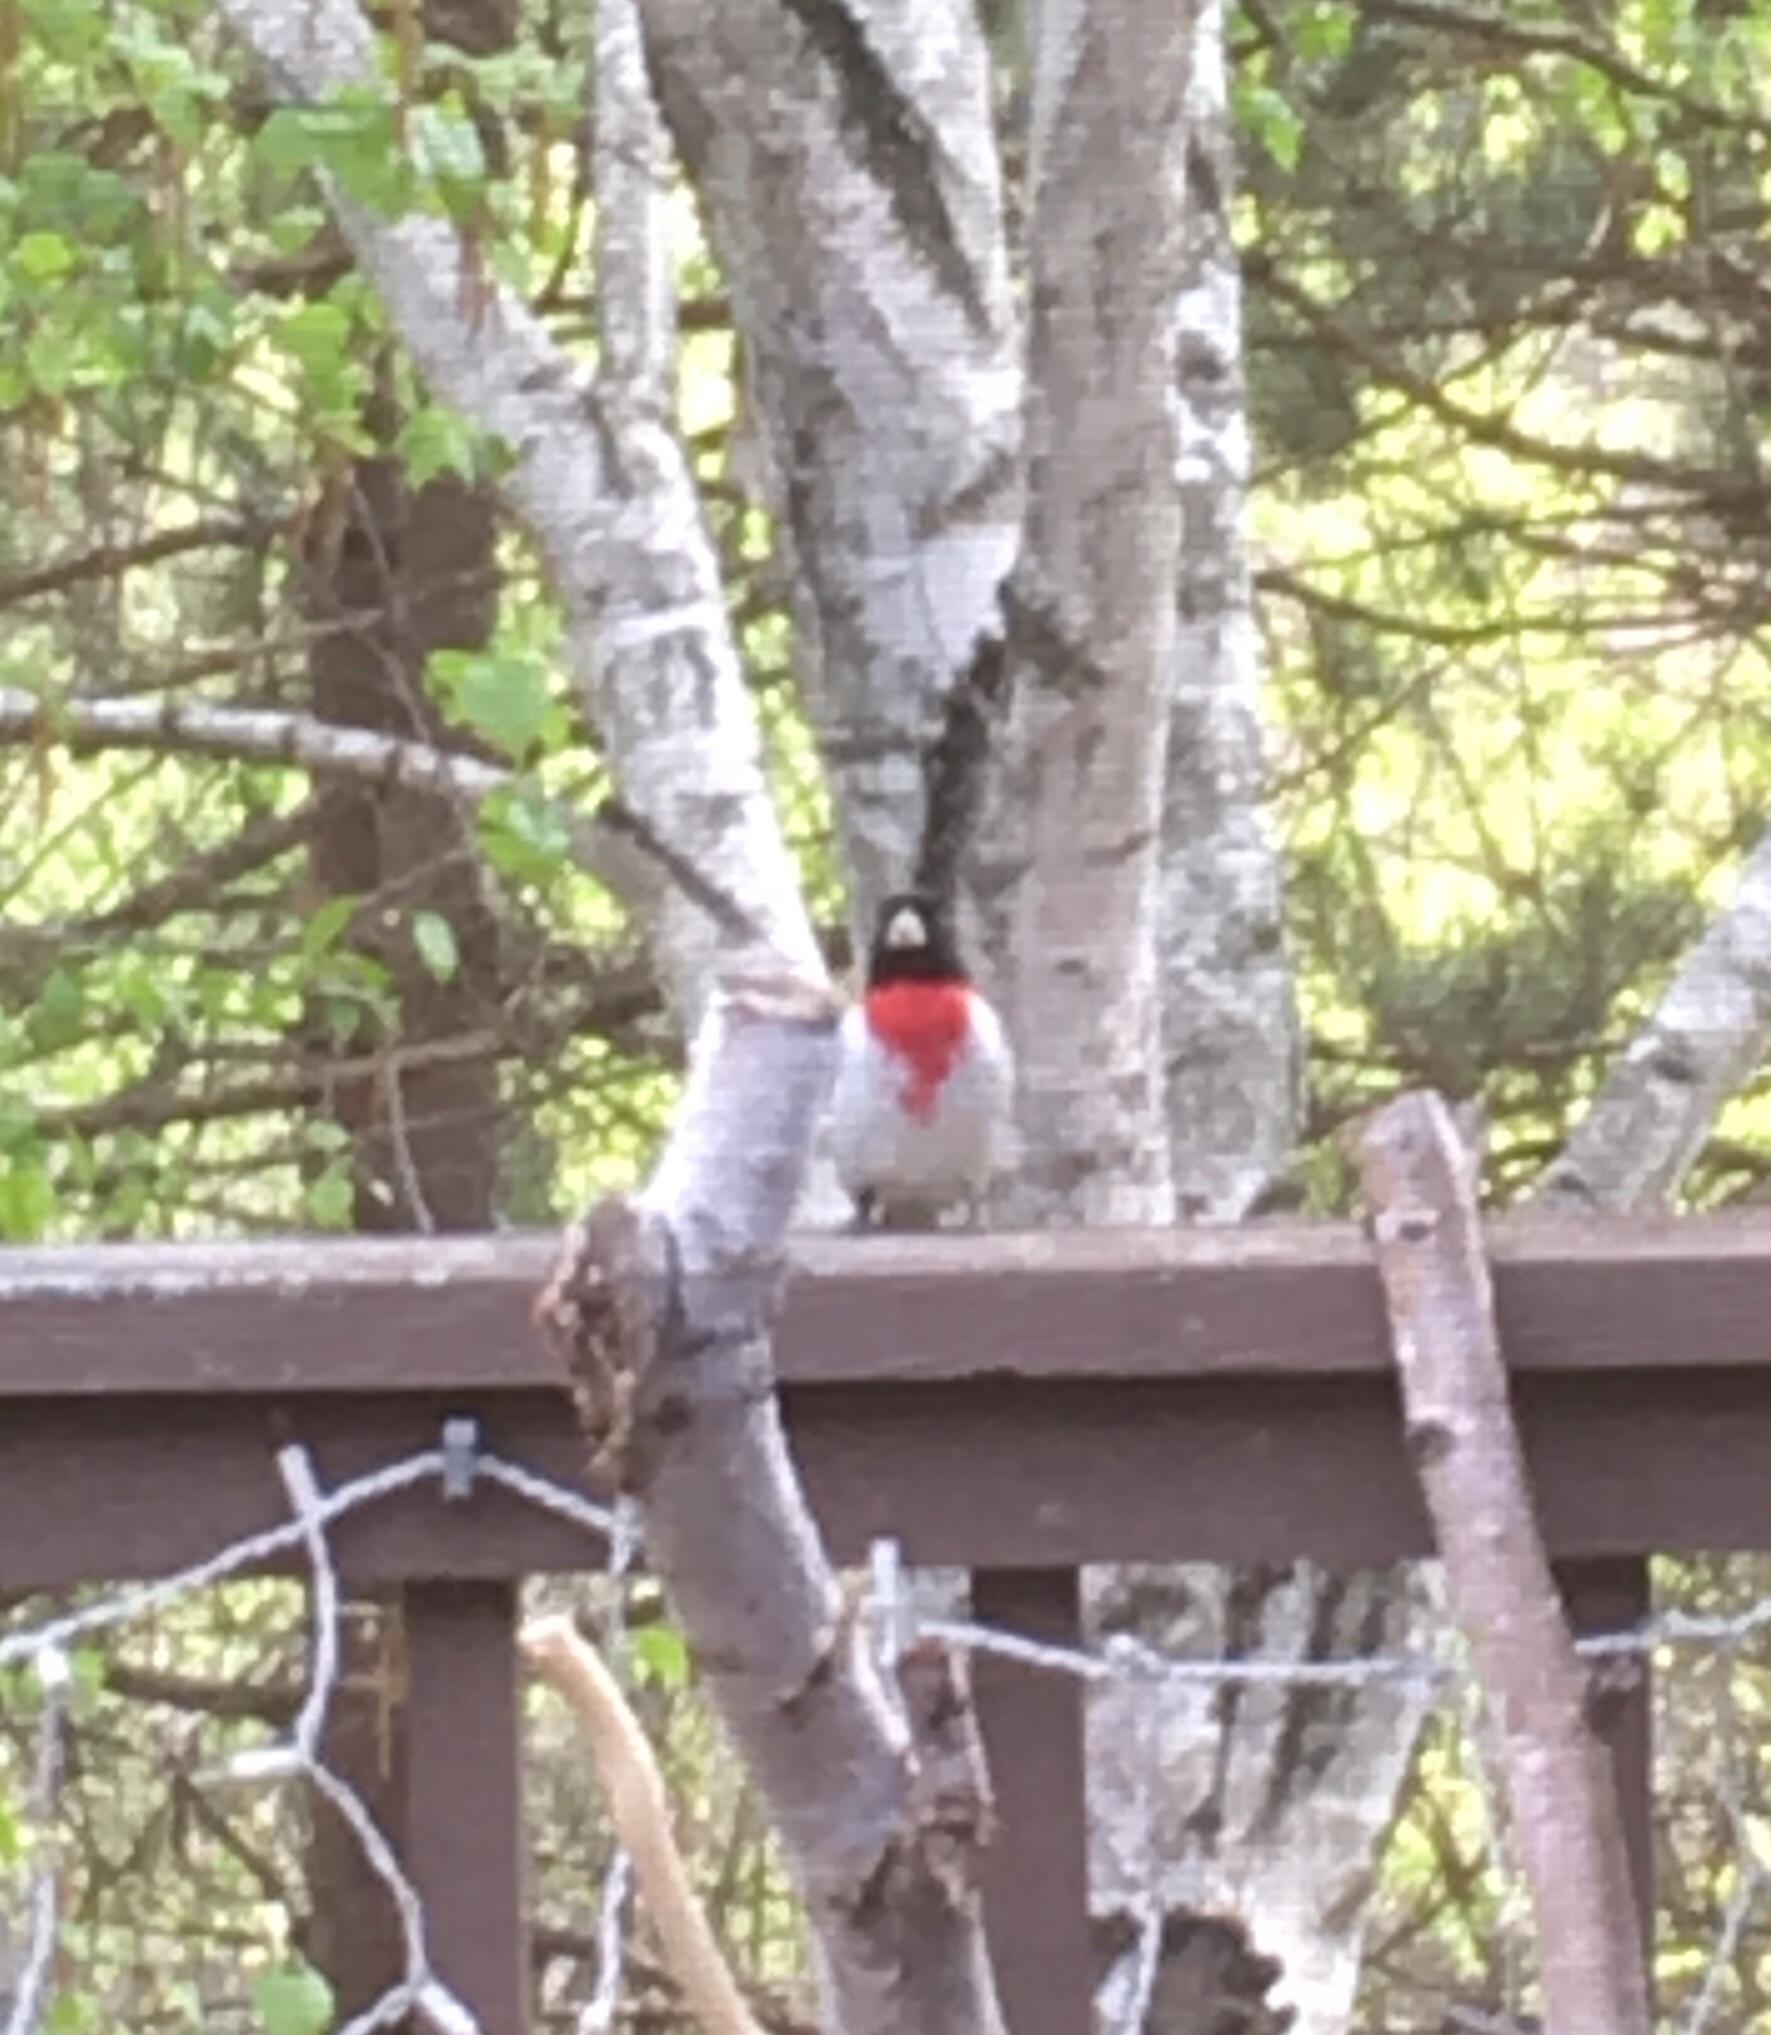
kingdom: Animalia
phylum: Chordata
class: Aves
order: Passeriformes
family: Cardinalidae
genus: Pheucticus
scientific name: Pheucticus ludovicianus
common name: Rose-breasted grosbeak
